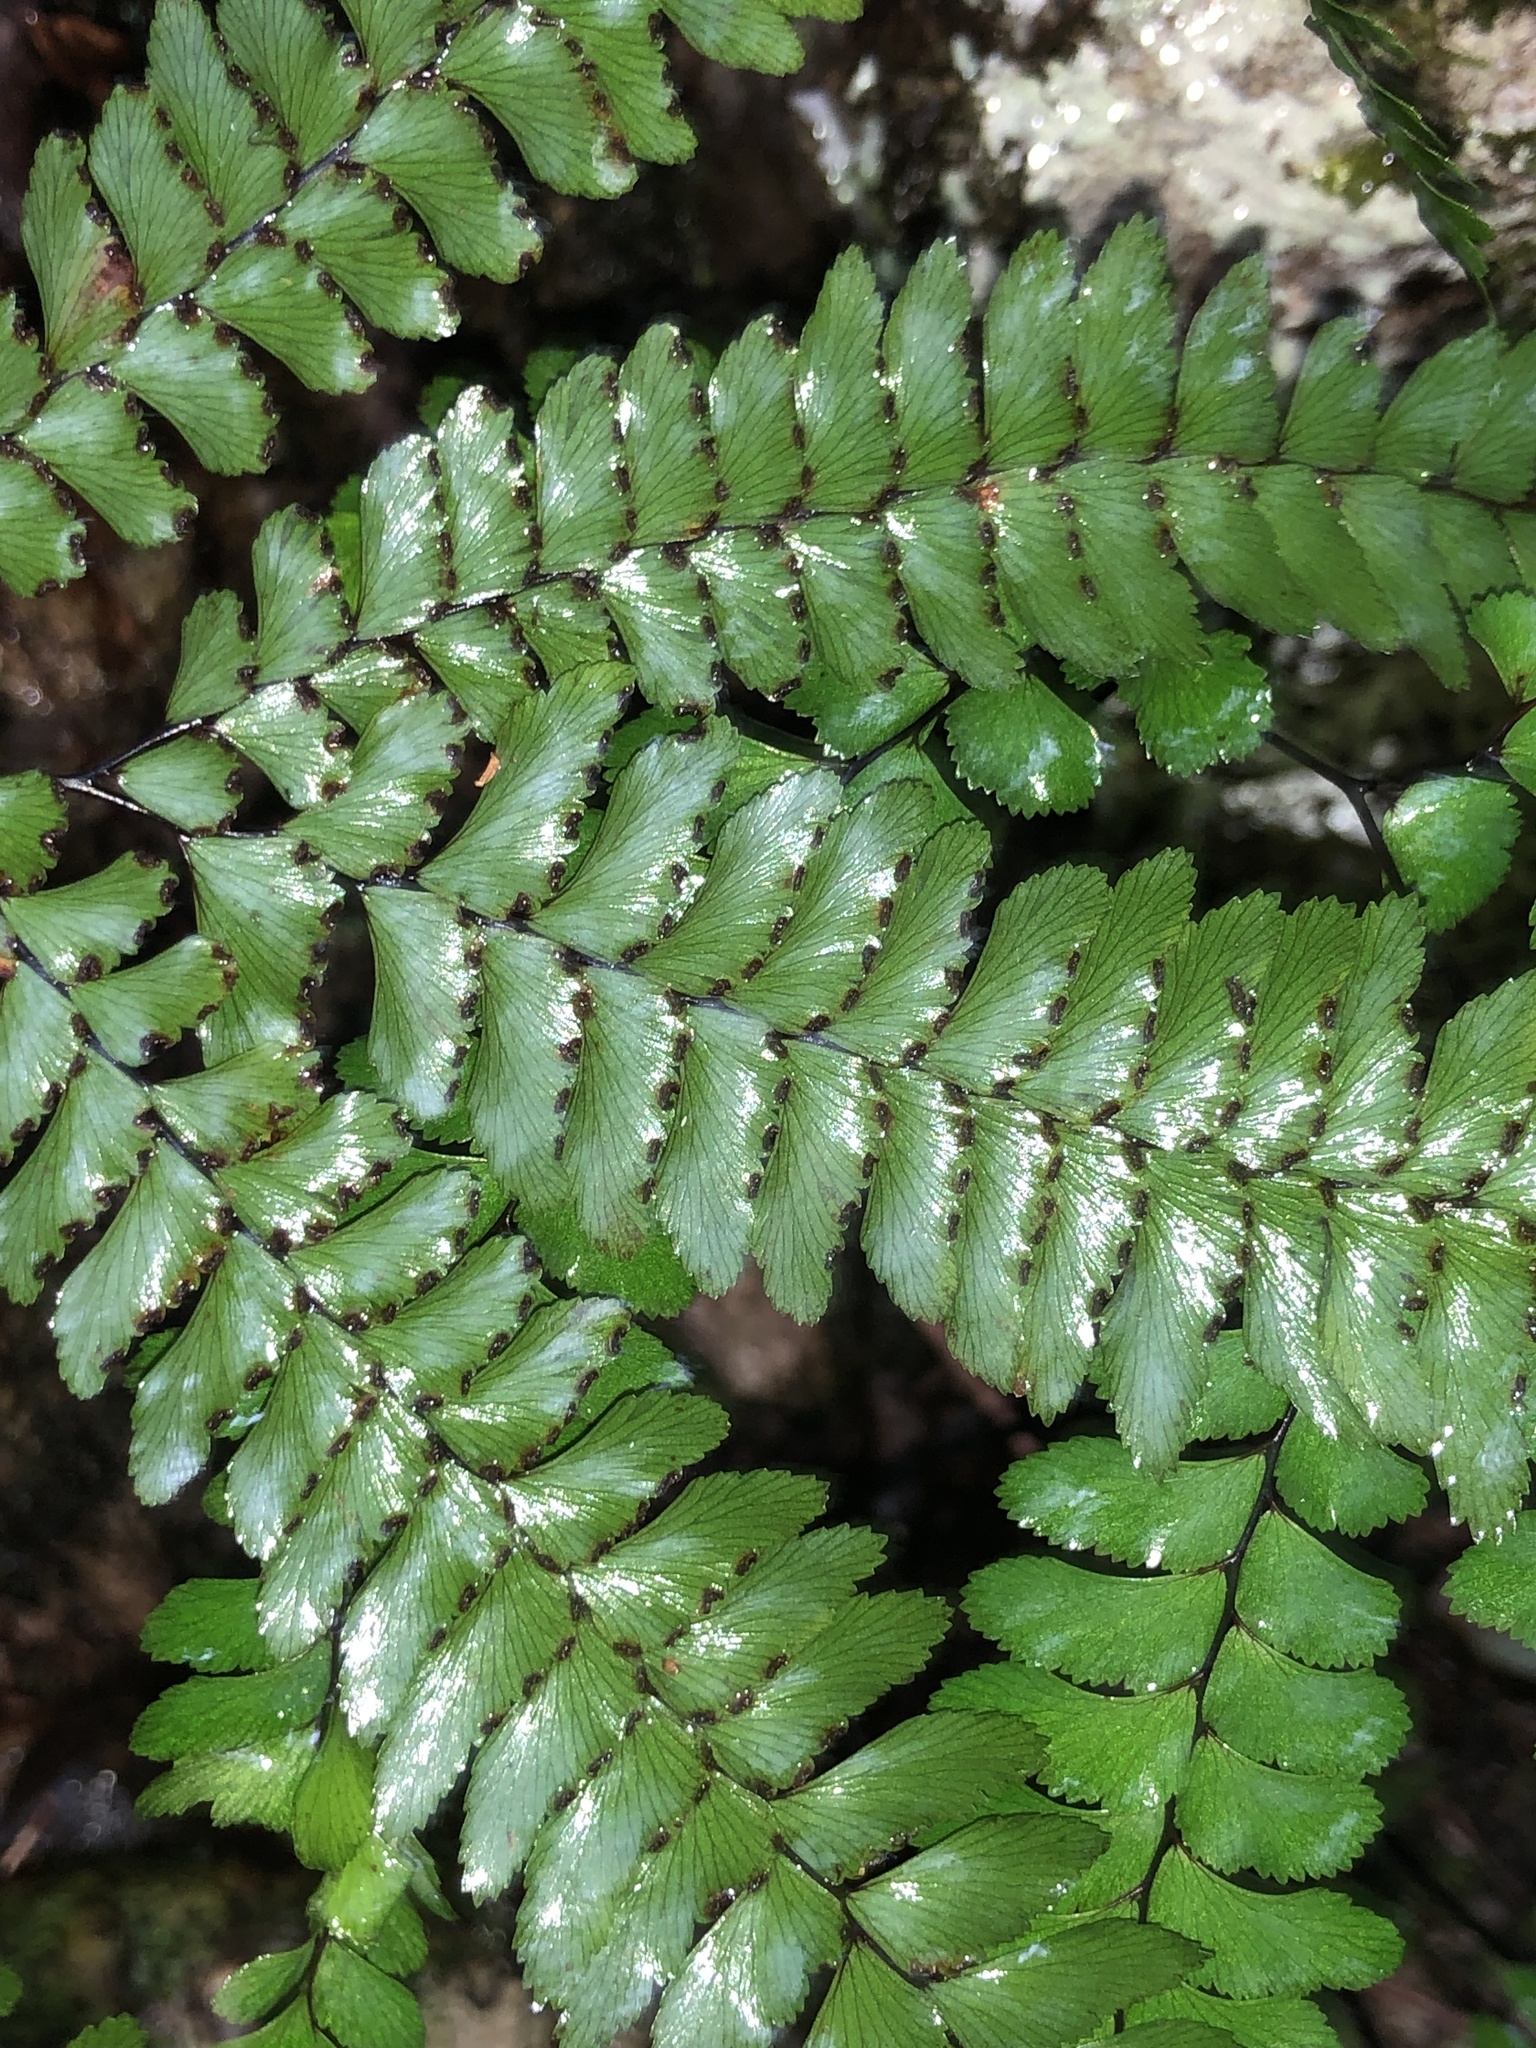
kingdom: Plantae
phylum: Tracheophyta
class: Polypodiopsida
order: Polypodiales
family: Pteridaceae
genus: Adiantum
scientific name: Adiantum silvaticum
